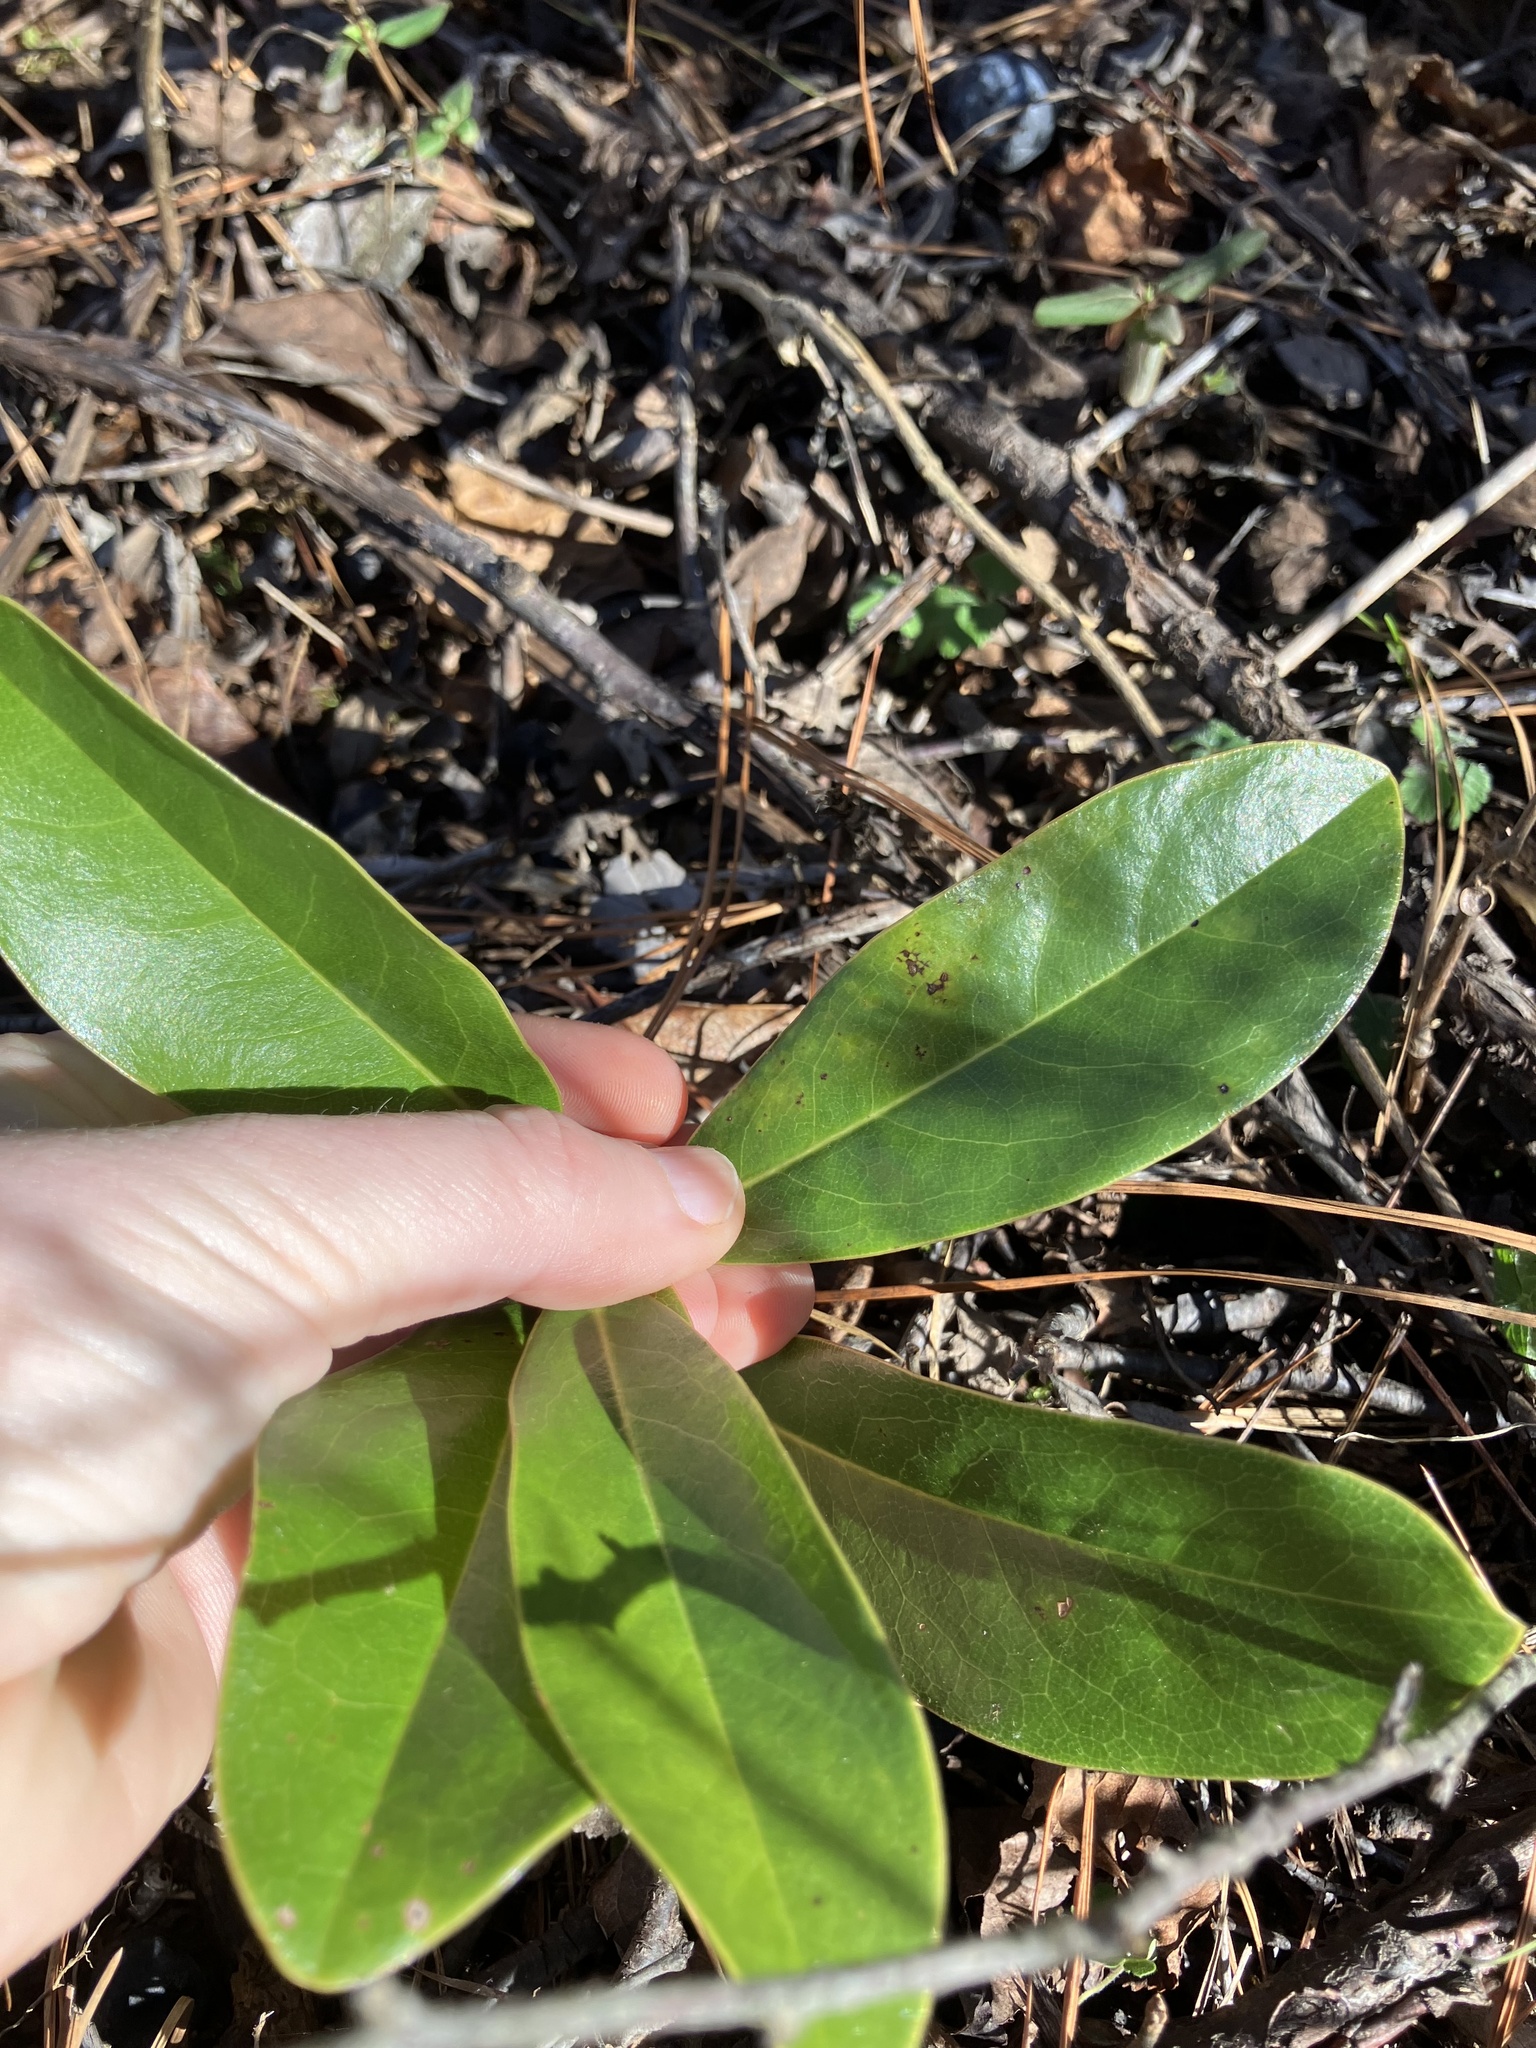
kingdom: Plantae
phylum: Tracheophyta
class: Magnoliopsida
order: Magnoliales
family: Magnoliaceae
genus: Magnolia
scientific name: Magnolia grandiflora
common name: Southern magnolia
